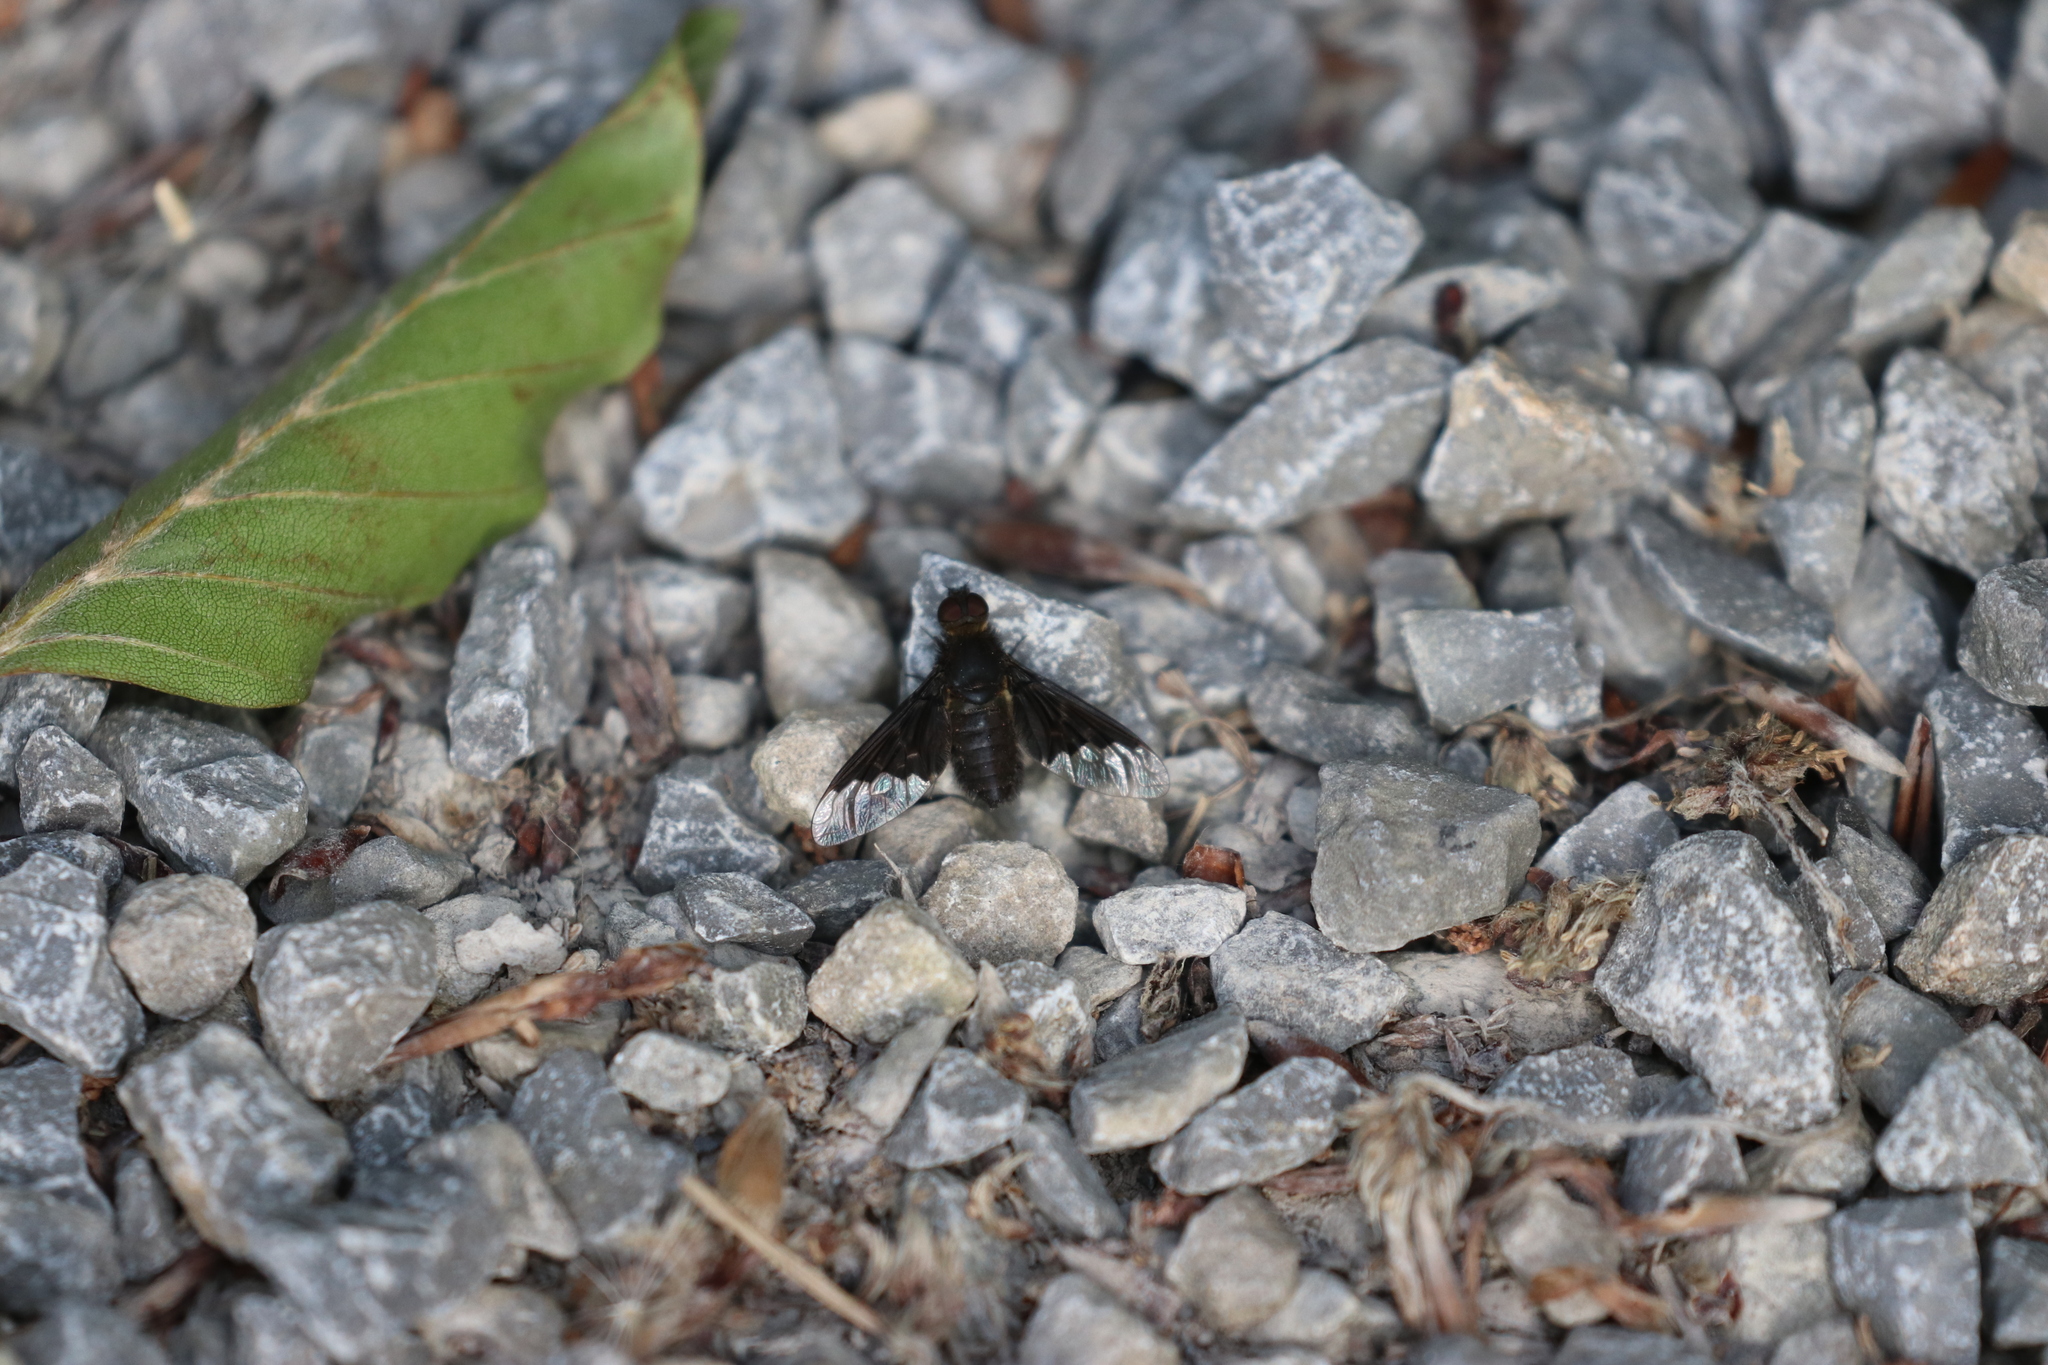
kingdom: Animalia
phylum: Arthropoda
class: Insecta
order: Diptera
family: Bombyliidae
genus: Hemipenthes
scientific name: Hemipenthes morio
